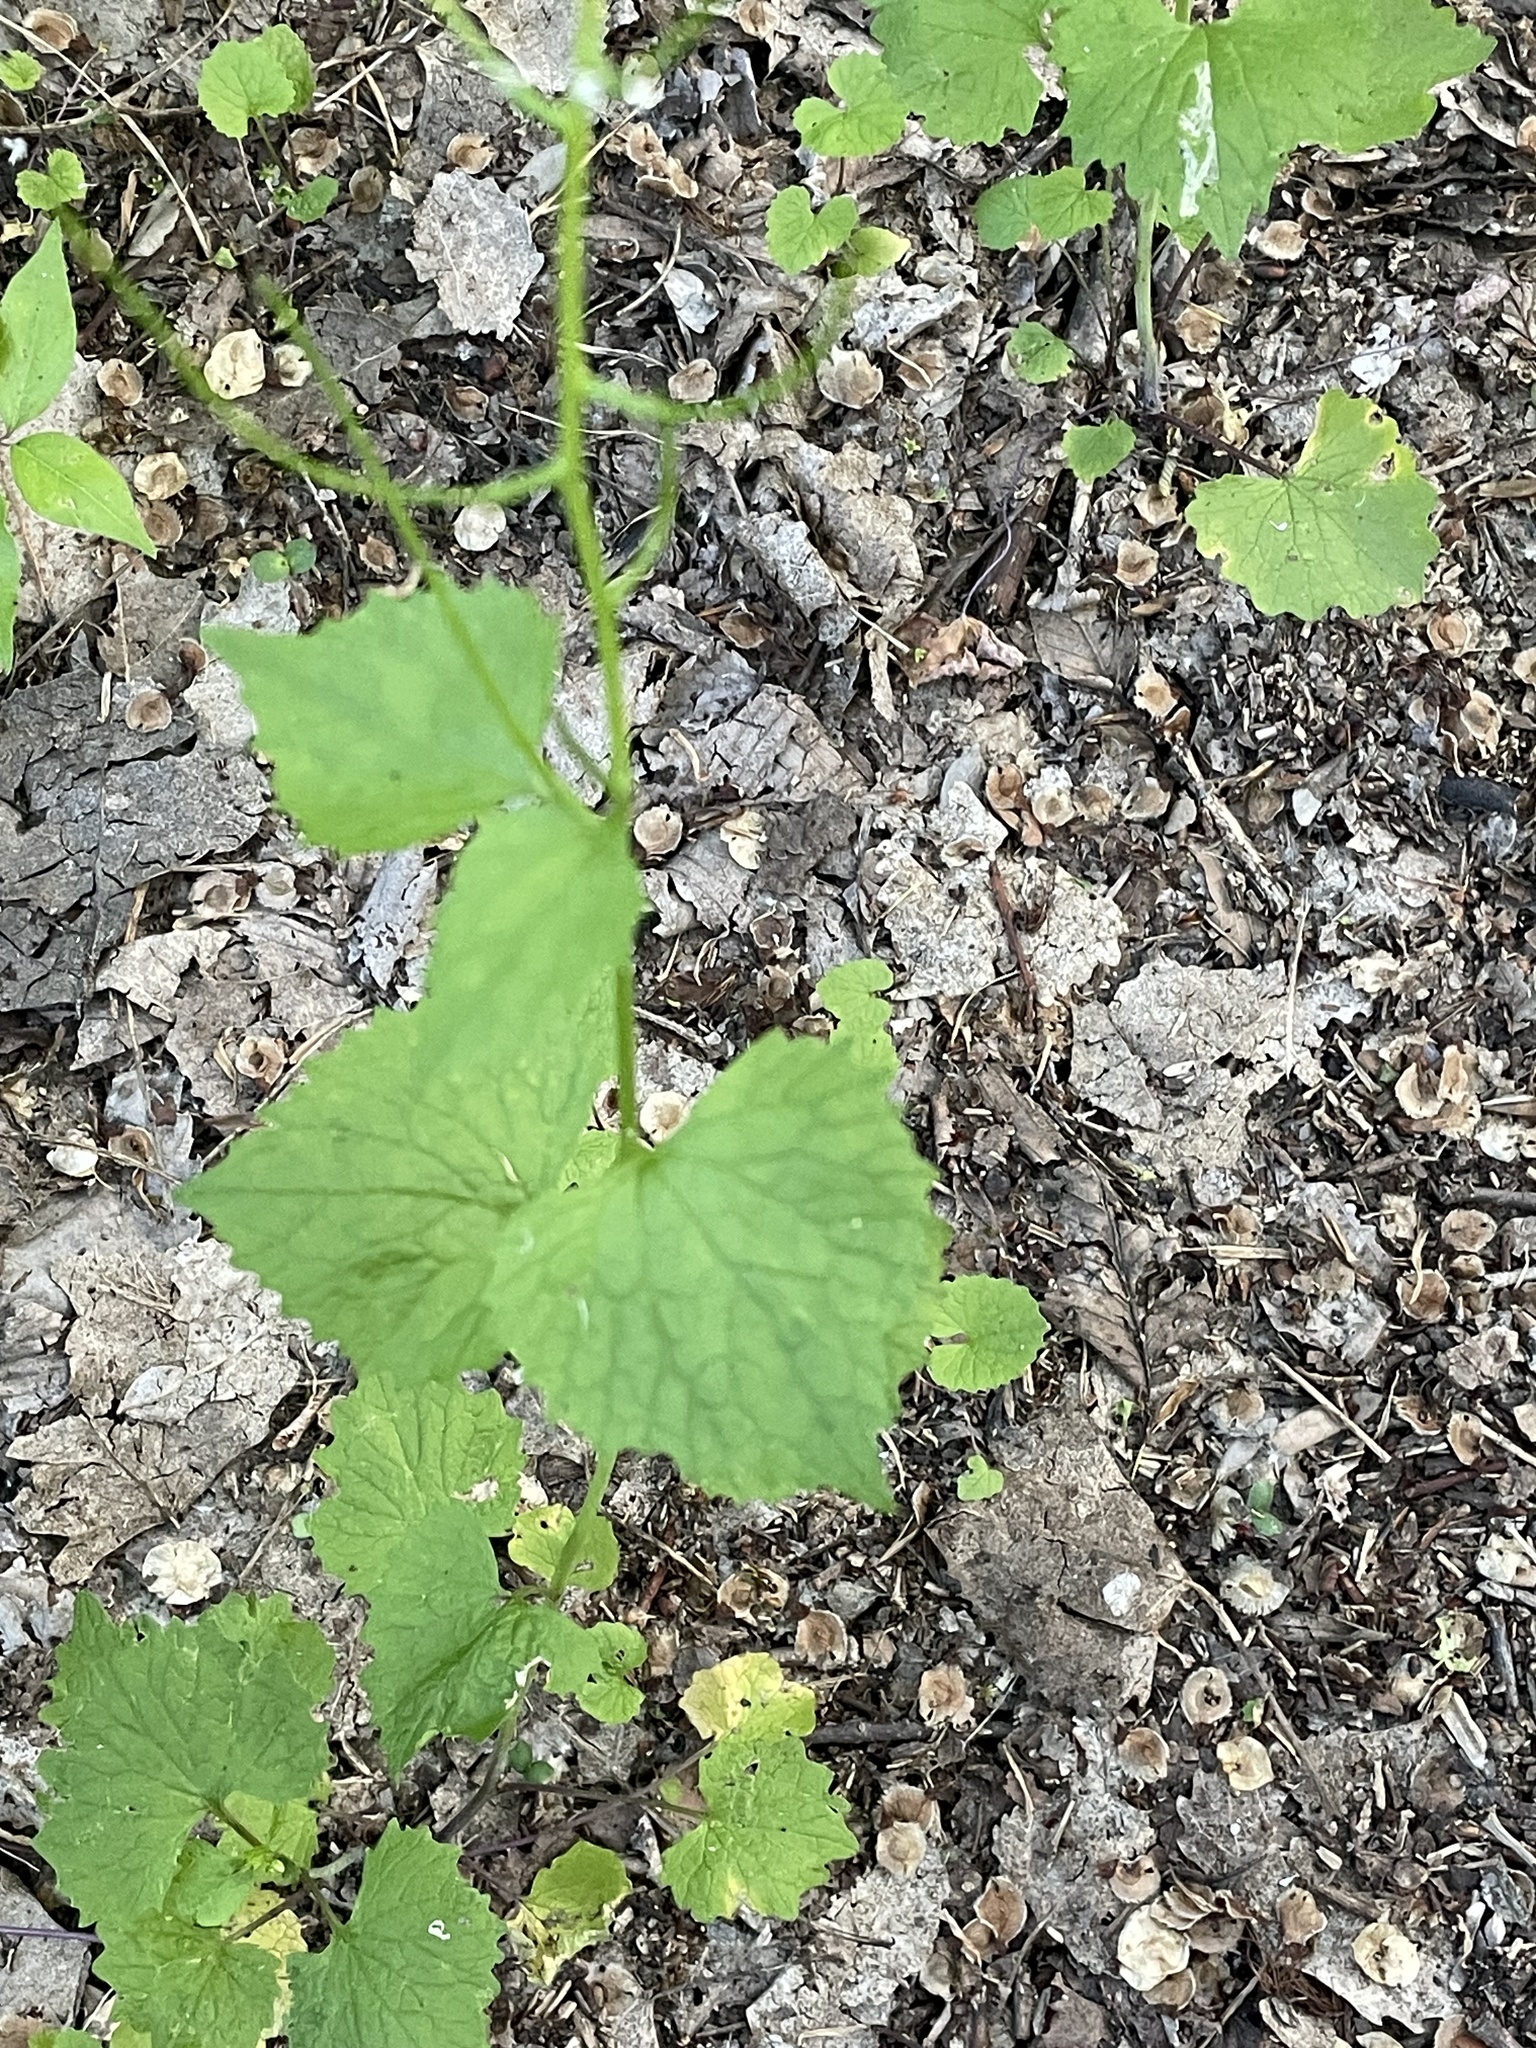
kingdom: Plantae
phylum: Tracheophyta
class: Magnoliopsida
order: Brassicales
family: Brassicaceae
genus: Alliaria
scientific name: Alliaria petiolata
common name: Garlic mustard
